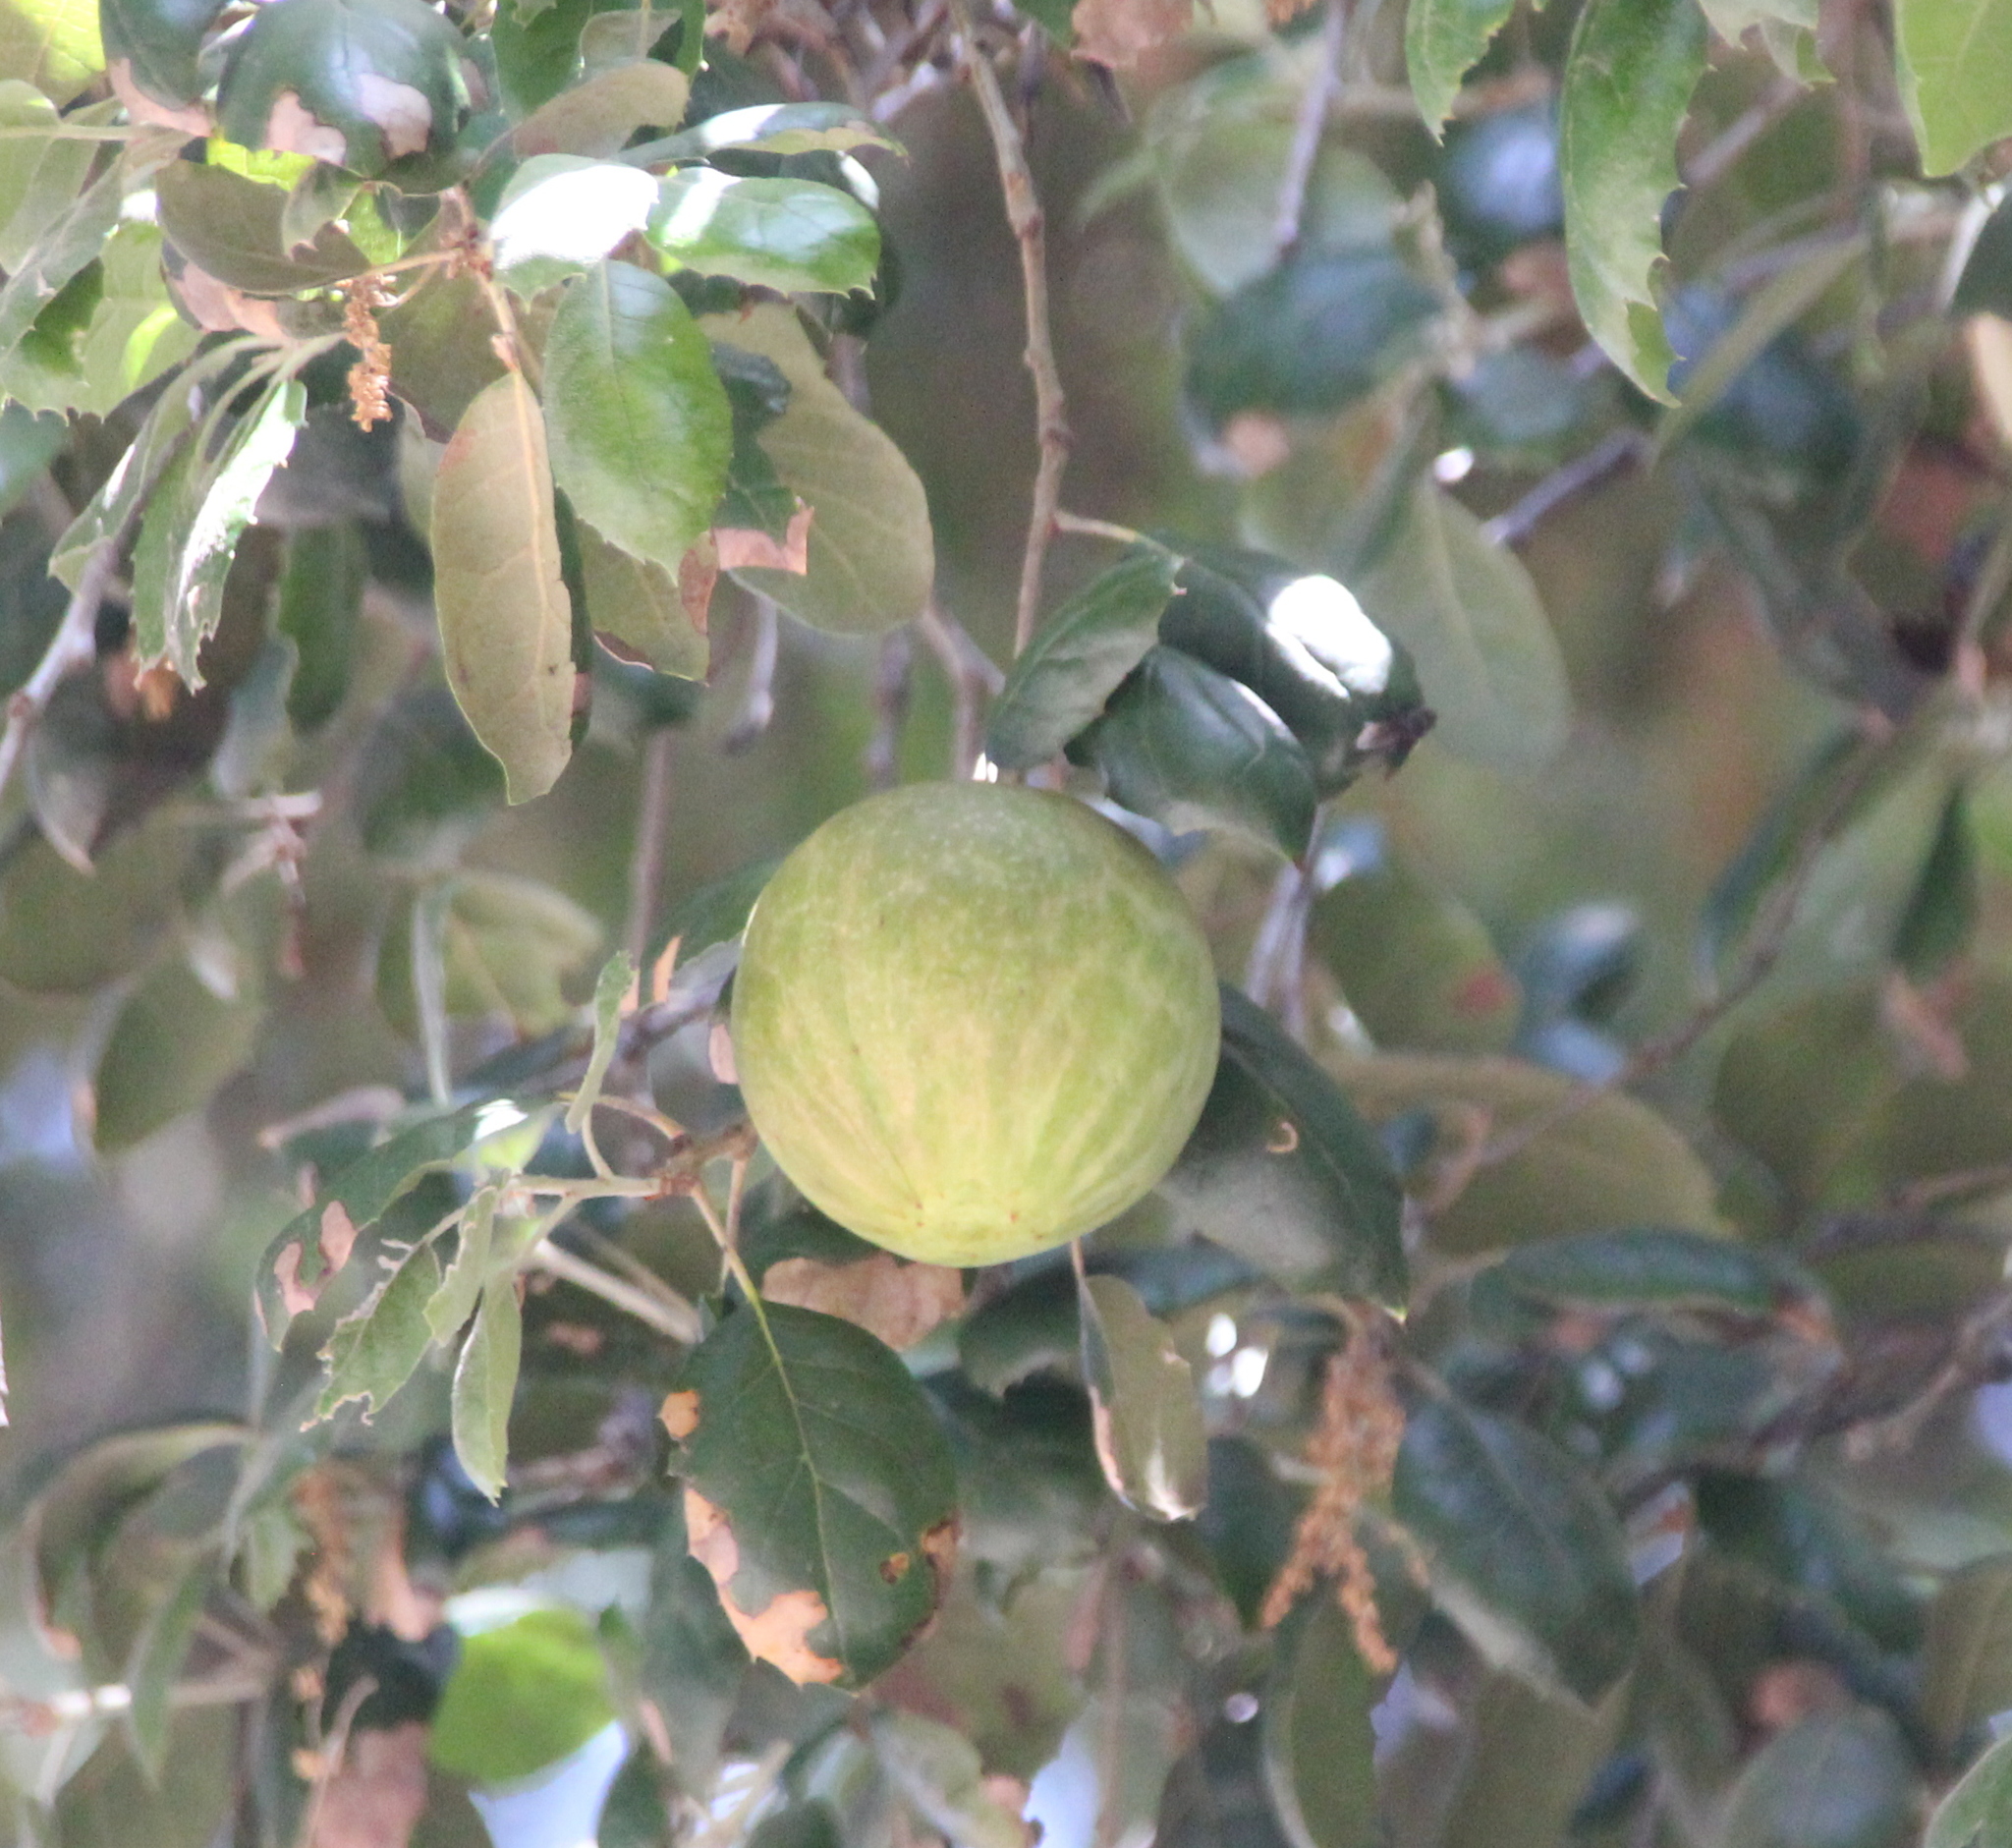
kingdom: Animalia
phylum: Arthropoda
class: Insecta
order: Hymenoptera
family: Cynipidae
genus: Andricus
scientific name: Andricus quercuscalifornicus
